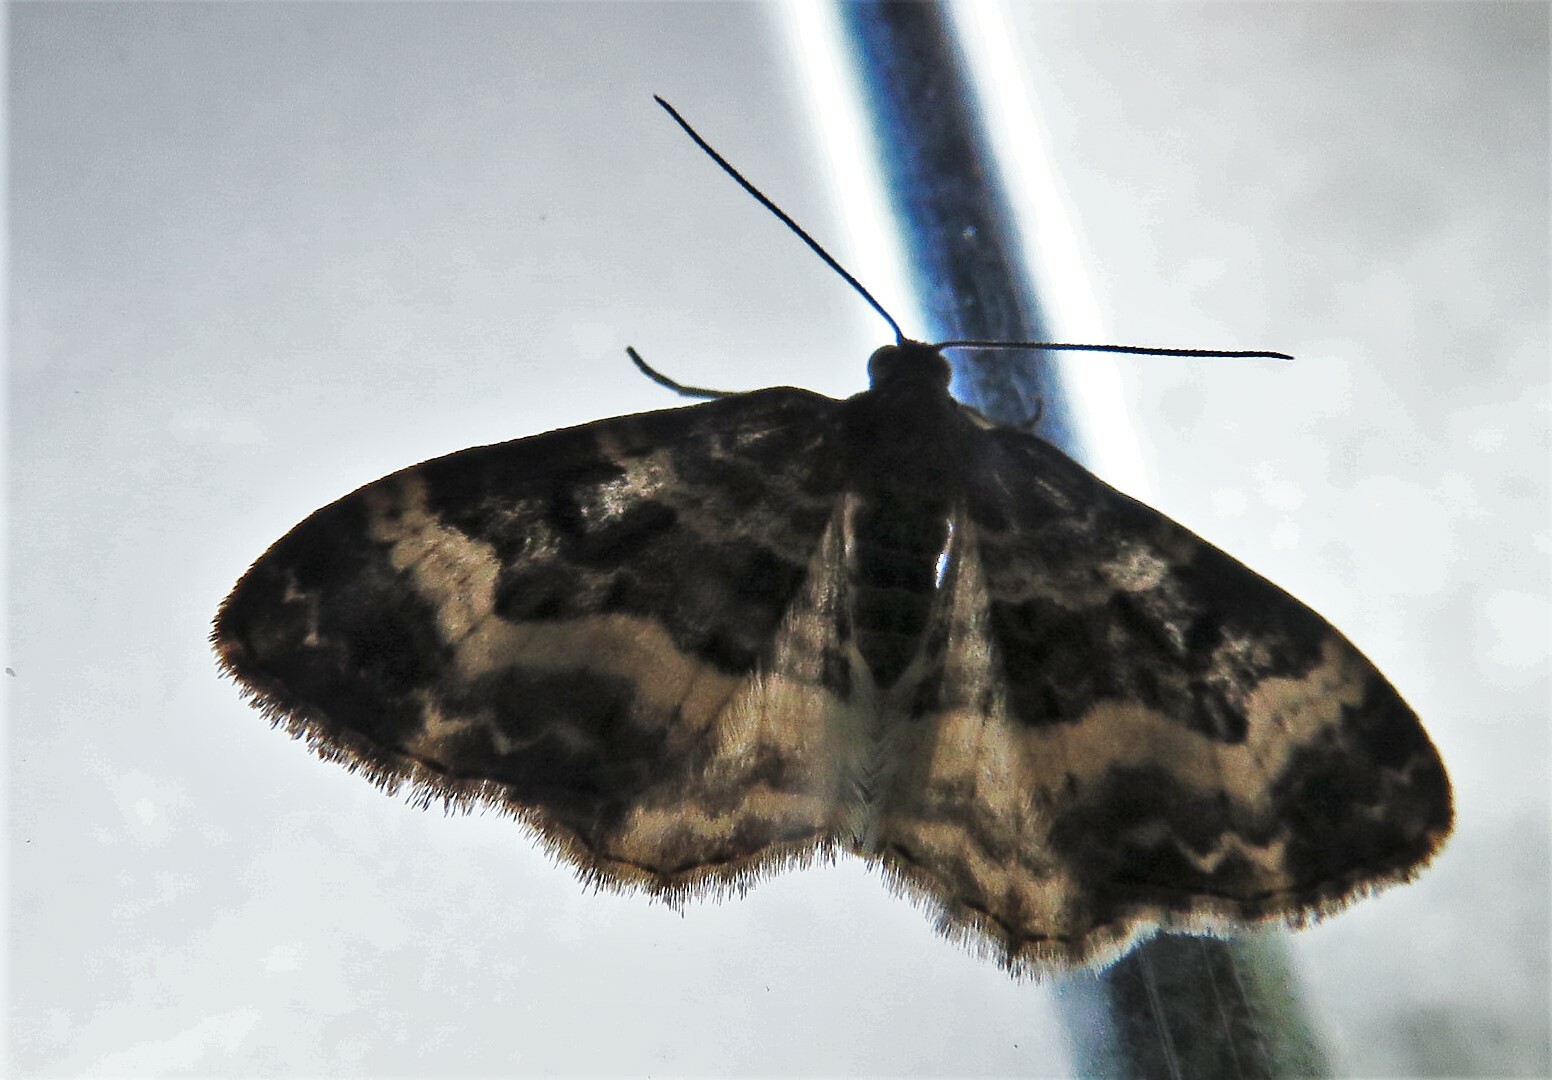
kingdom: Animalia
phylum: Arthropoda
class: Insecta
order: Lepidoptera
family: Geometridae
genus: Epirrhoe
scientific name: Epirrhoe alternata
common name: Common carpet
